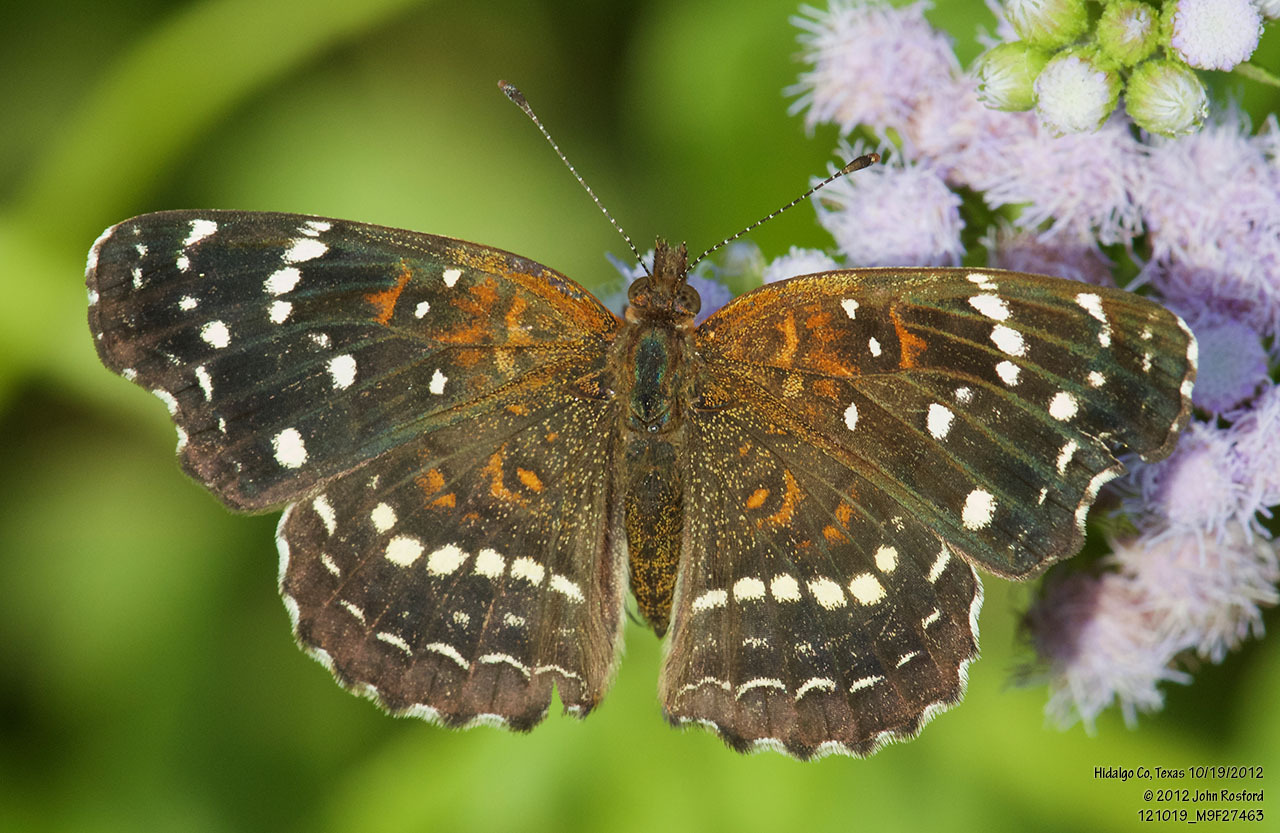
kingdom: Animalia
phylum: Arthropoda
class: Insecta
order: Lepidoptera
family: Nymphalidae
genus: Anthanassa
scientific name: Anthanassa texana
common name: Texan crescent
